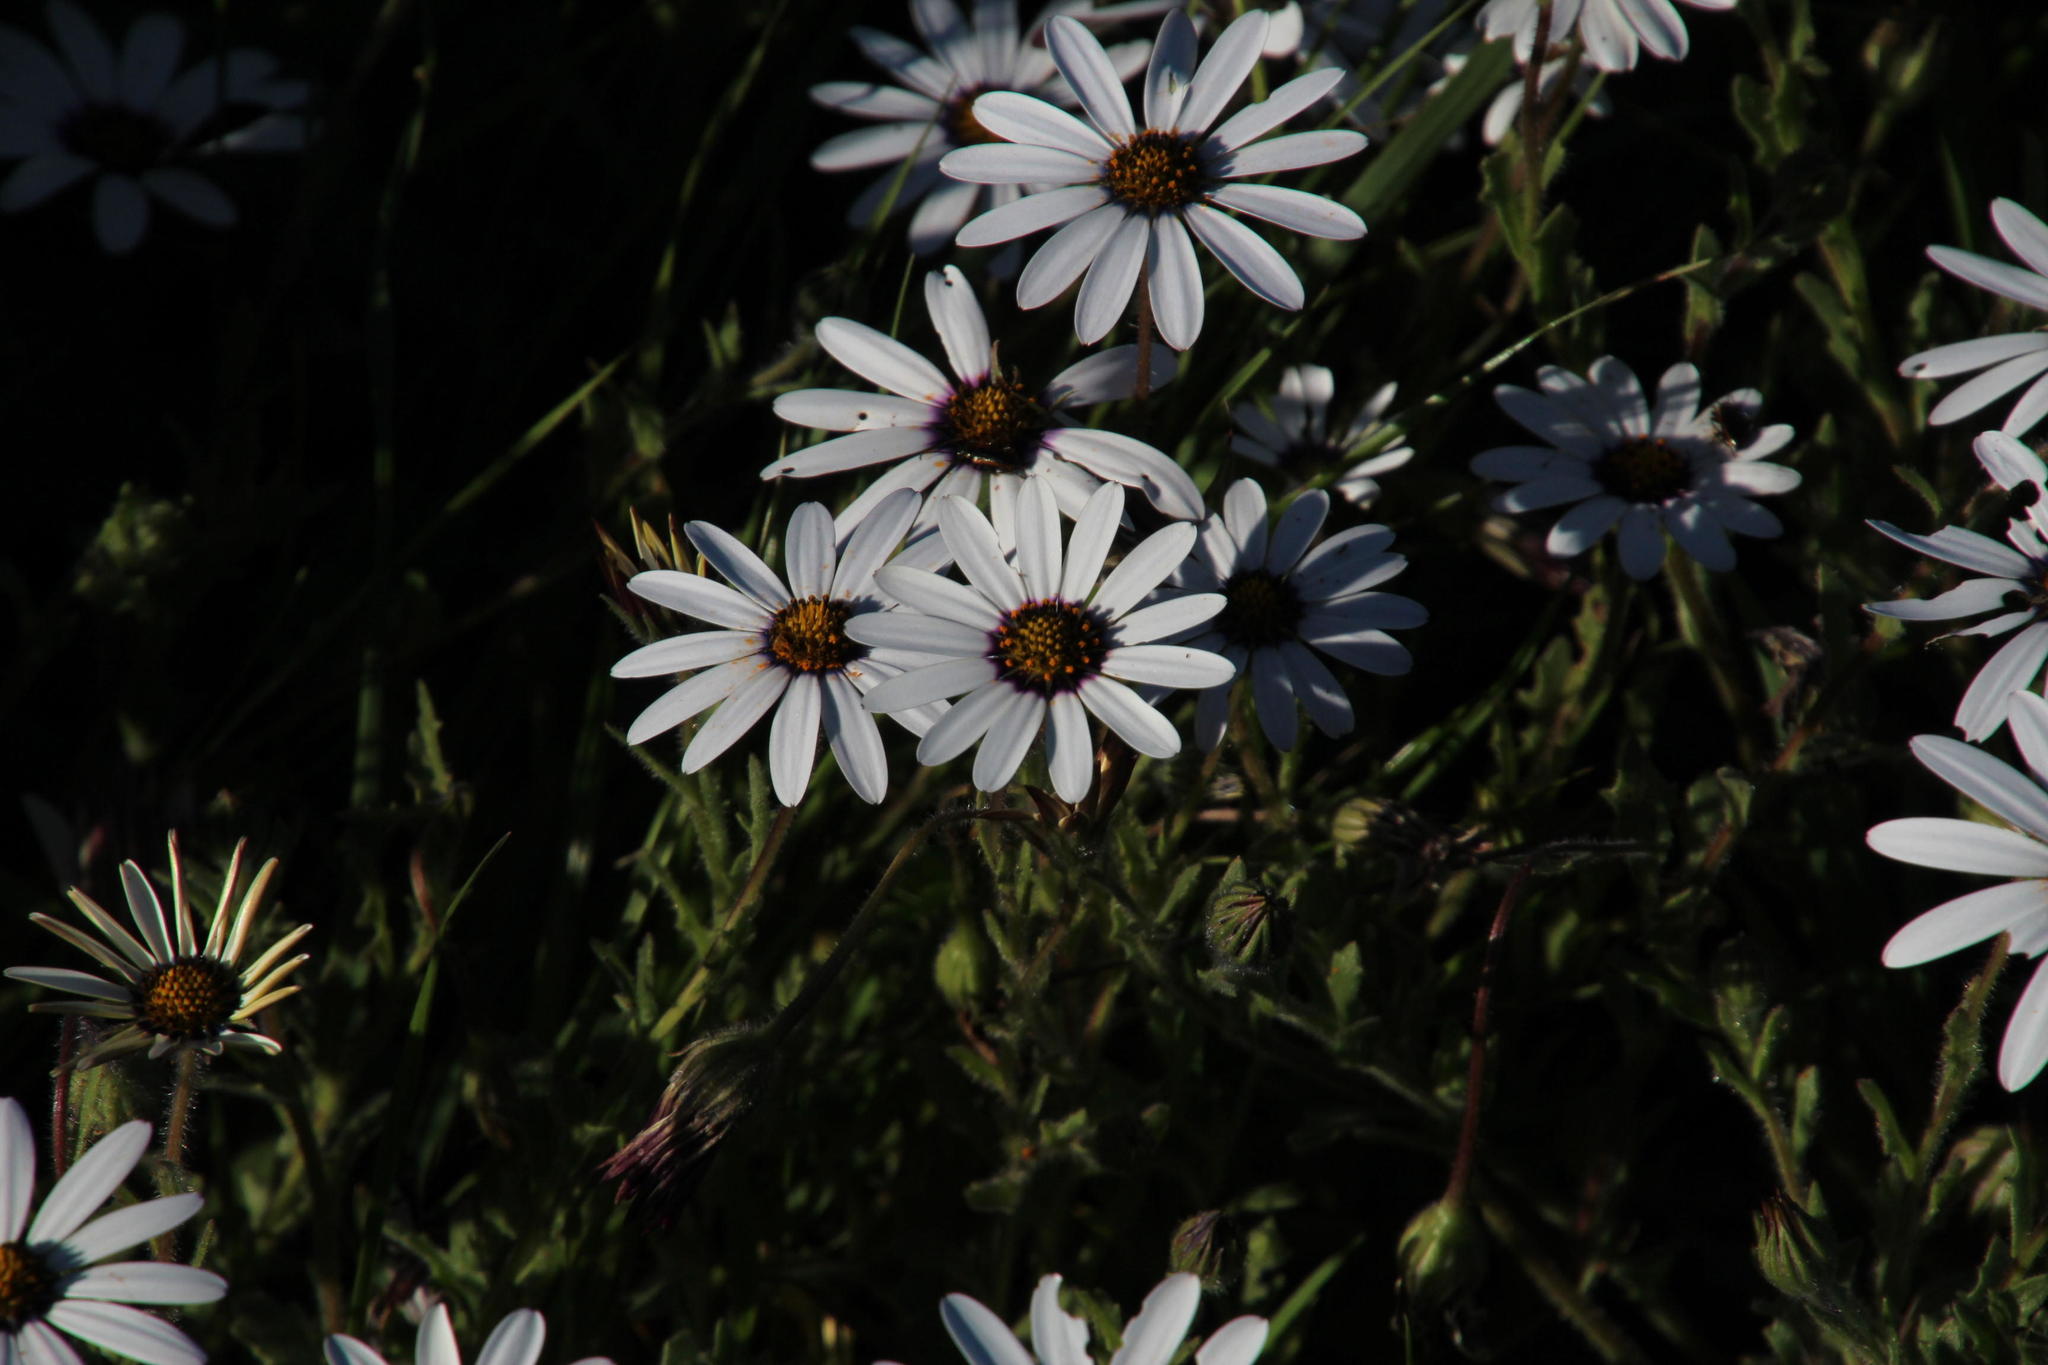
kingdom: Plantae
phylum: Tracheophyta
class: Magnoliopsida
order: Asterales
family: Asteraceae
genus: Dimorphotheca
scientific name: Dimorphotheca pluvialis
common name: Weather prophet
